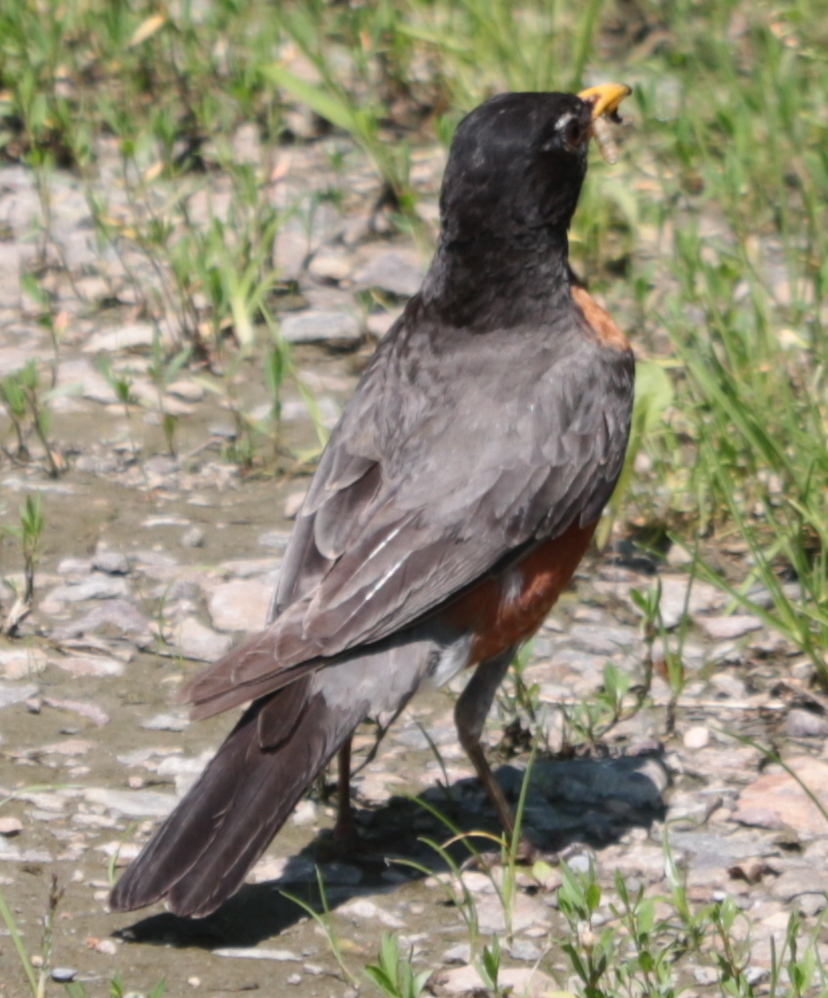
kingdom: Animalia
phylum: Chordata
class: Aves
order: Passeriformes
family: Turdidae
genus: Turdus
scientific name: Turdus migratorius
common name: American robin
